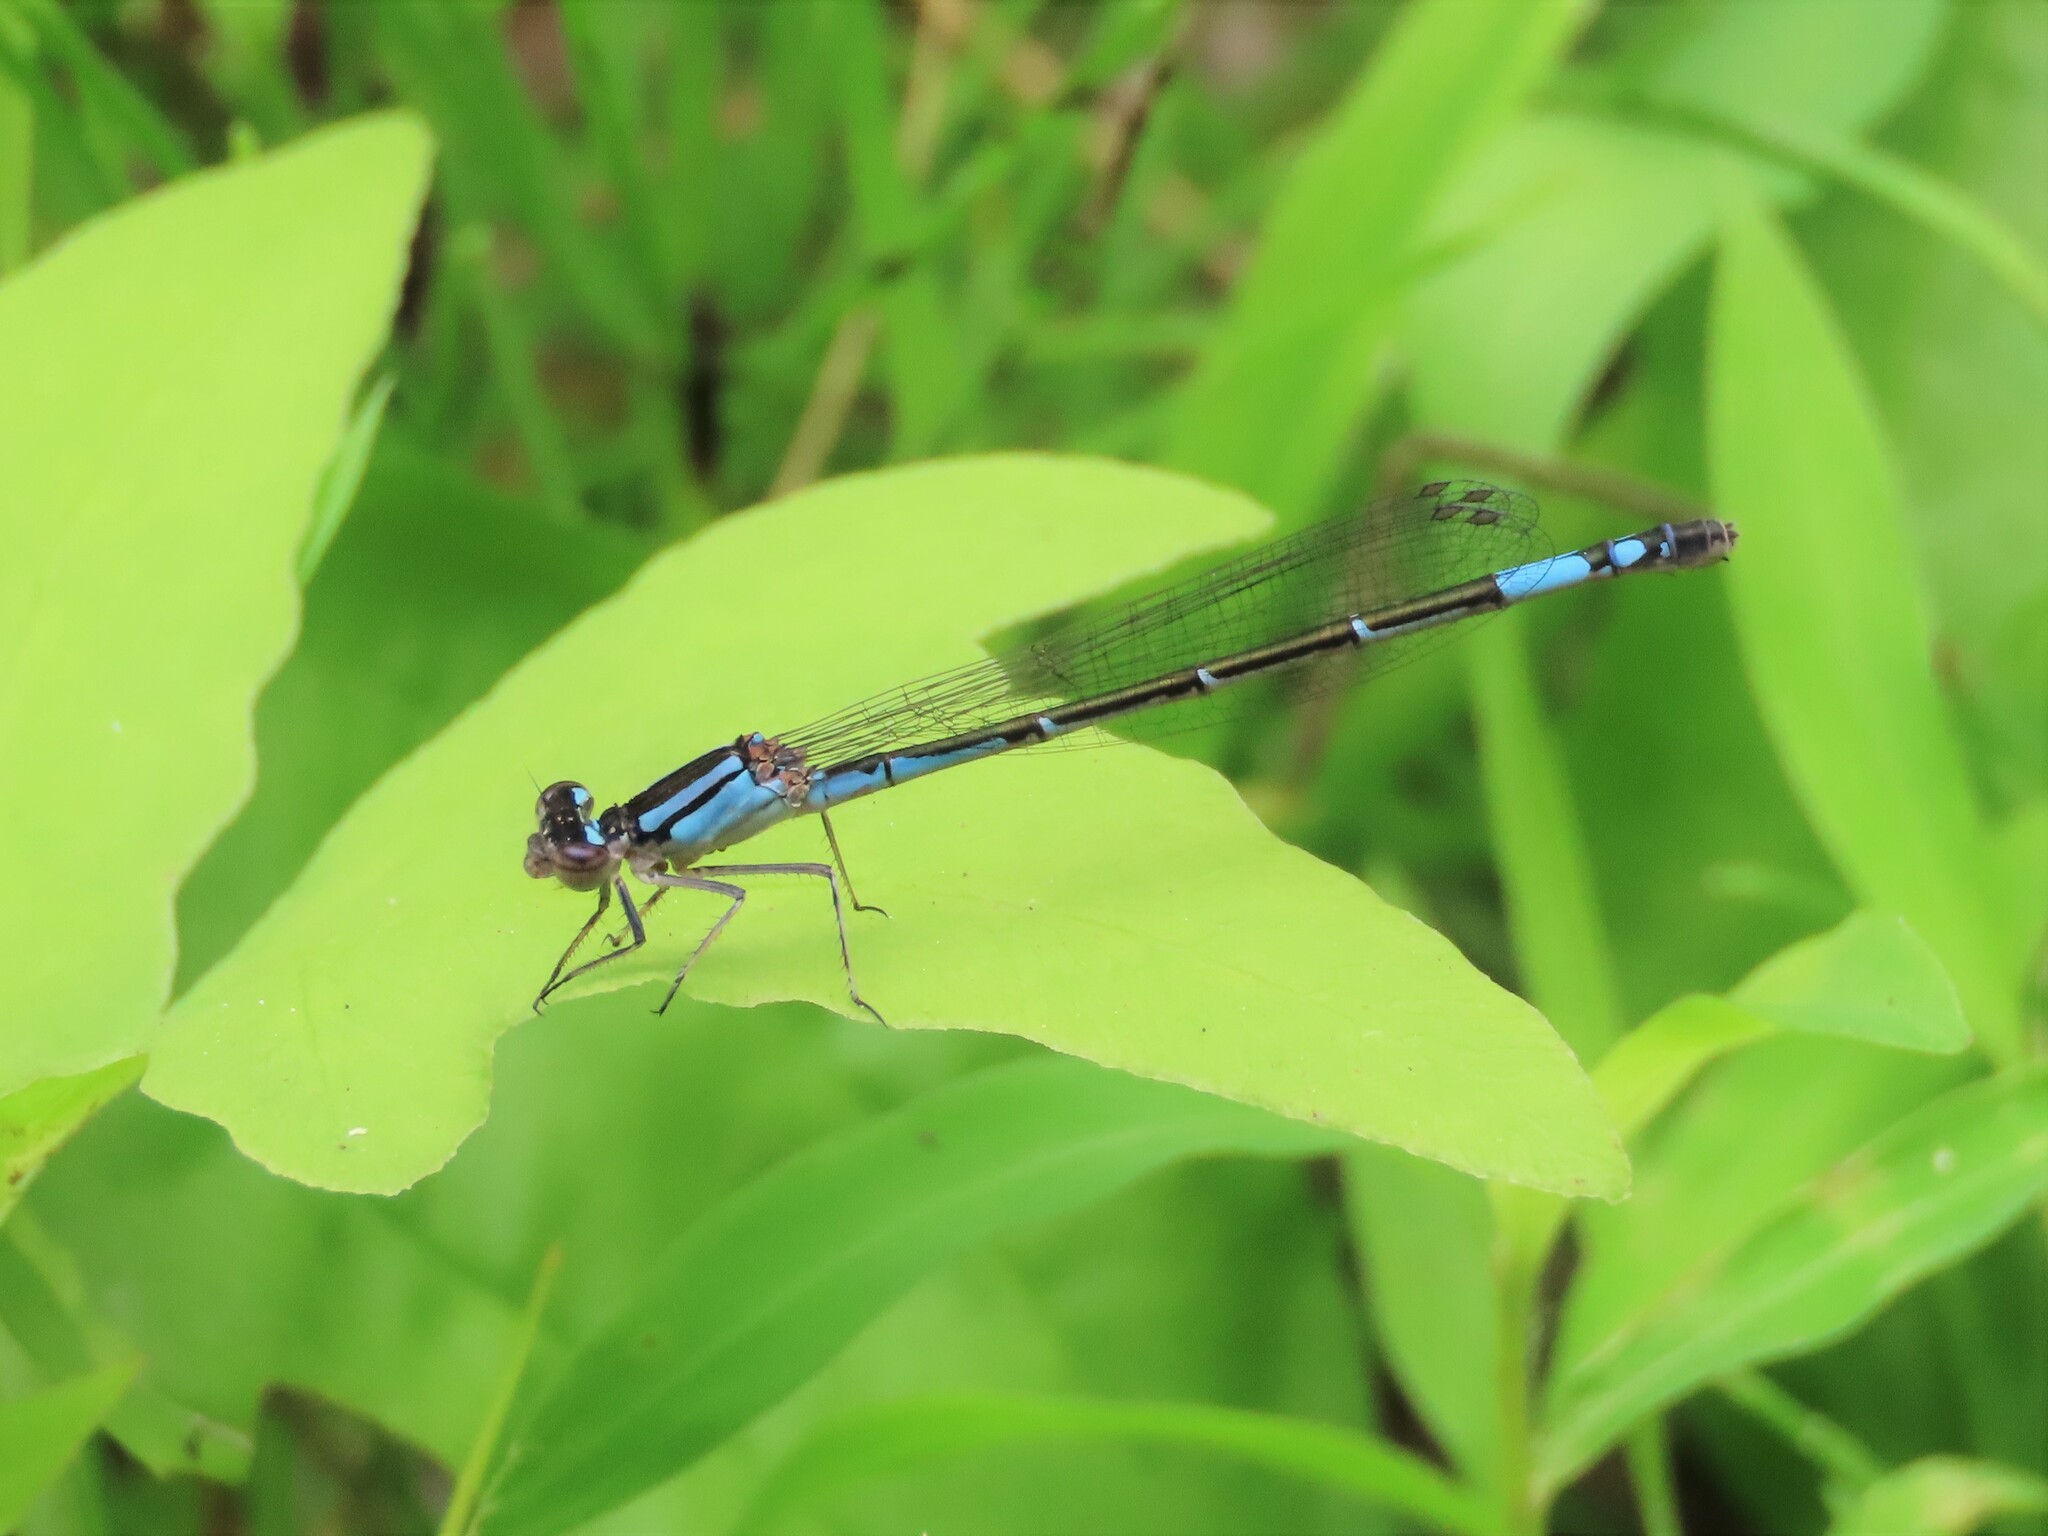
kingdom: Animalia
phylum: Arthropoda
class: Insecta
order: Odonata
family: Coenagrionidae
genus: Enallagma
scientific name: Enallagma aspersum
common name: Azure bluet
